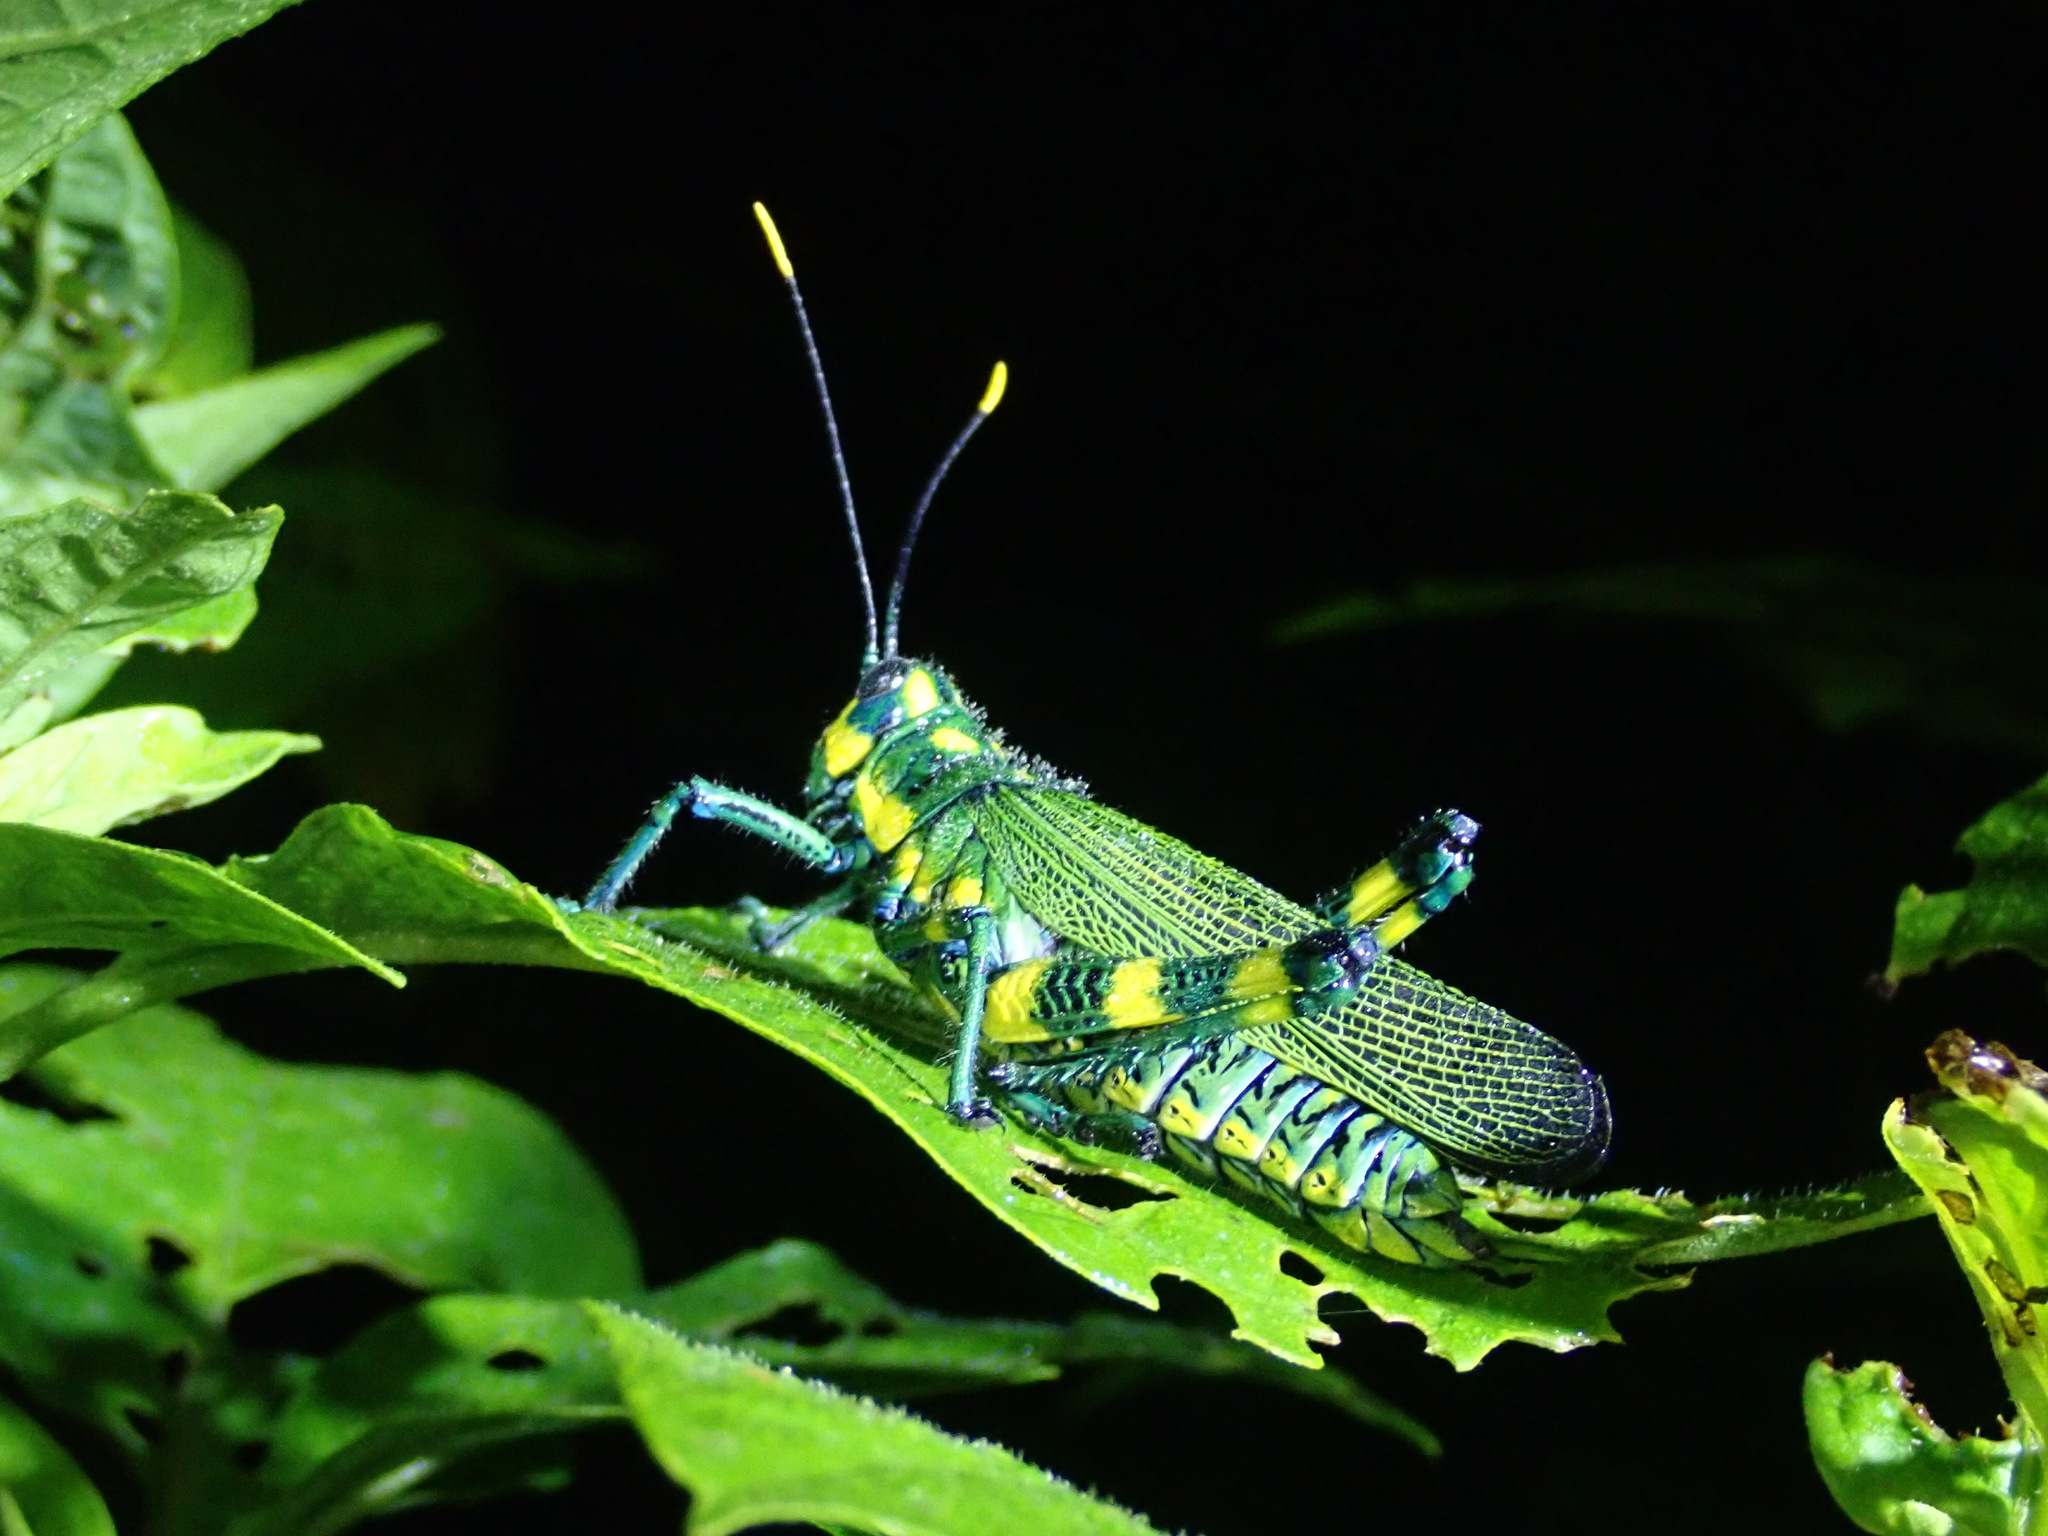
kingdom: Animalia
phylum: Arthropoda
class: Insecta
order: Orthoptera
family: Romaleidae
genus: Chromacris
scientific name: Chromacris icterus
